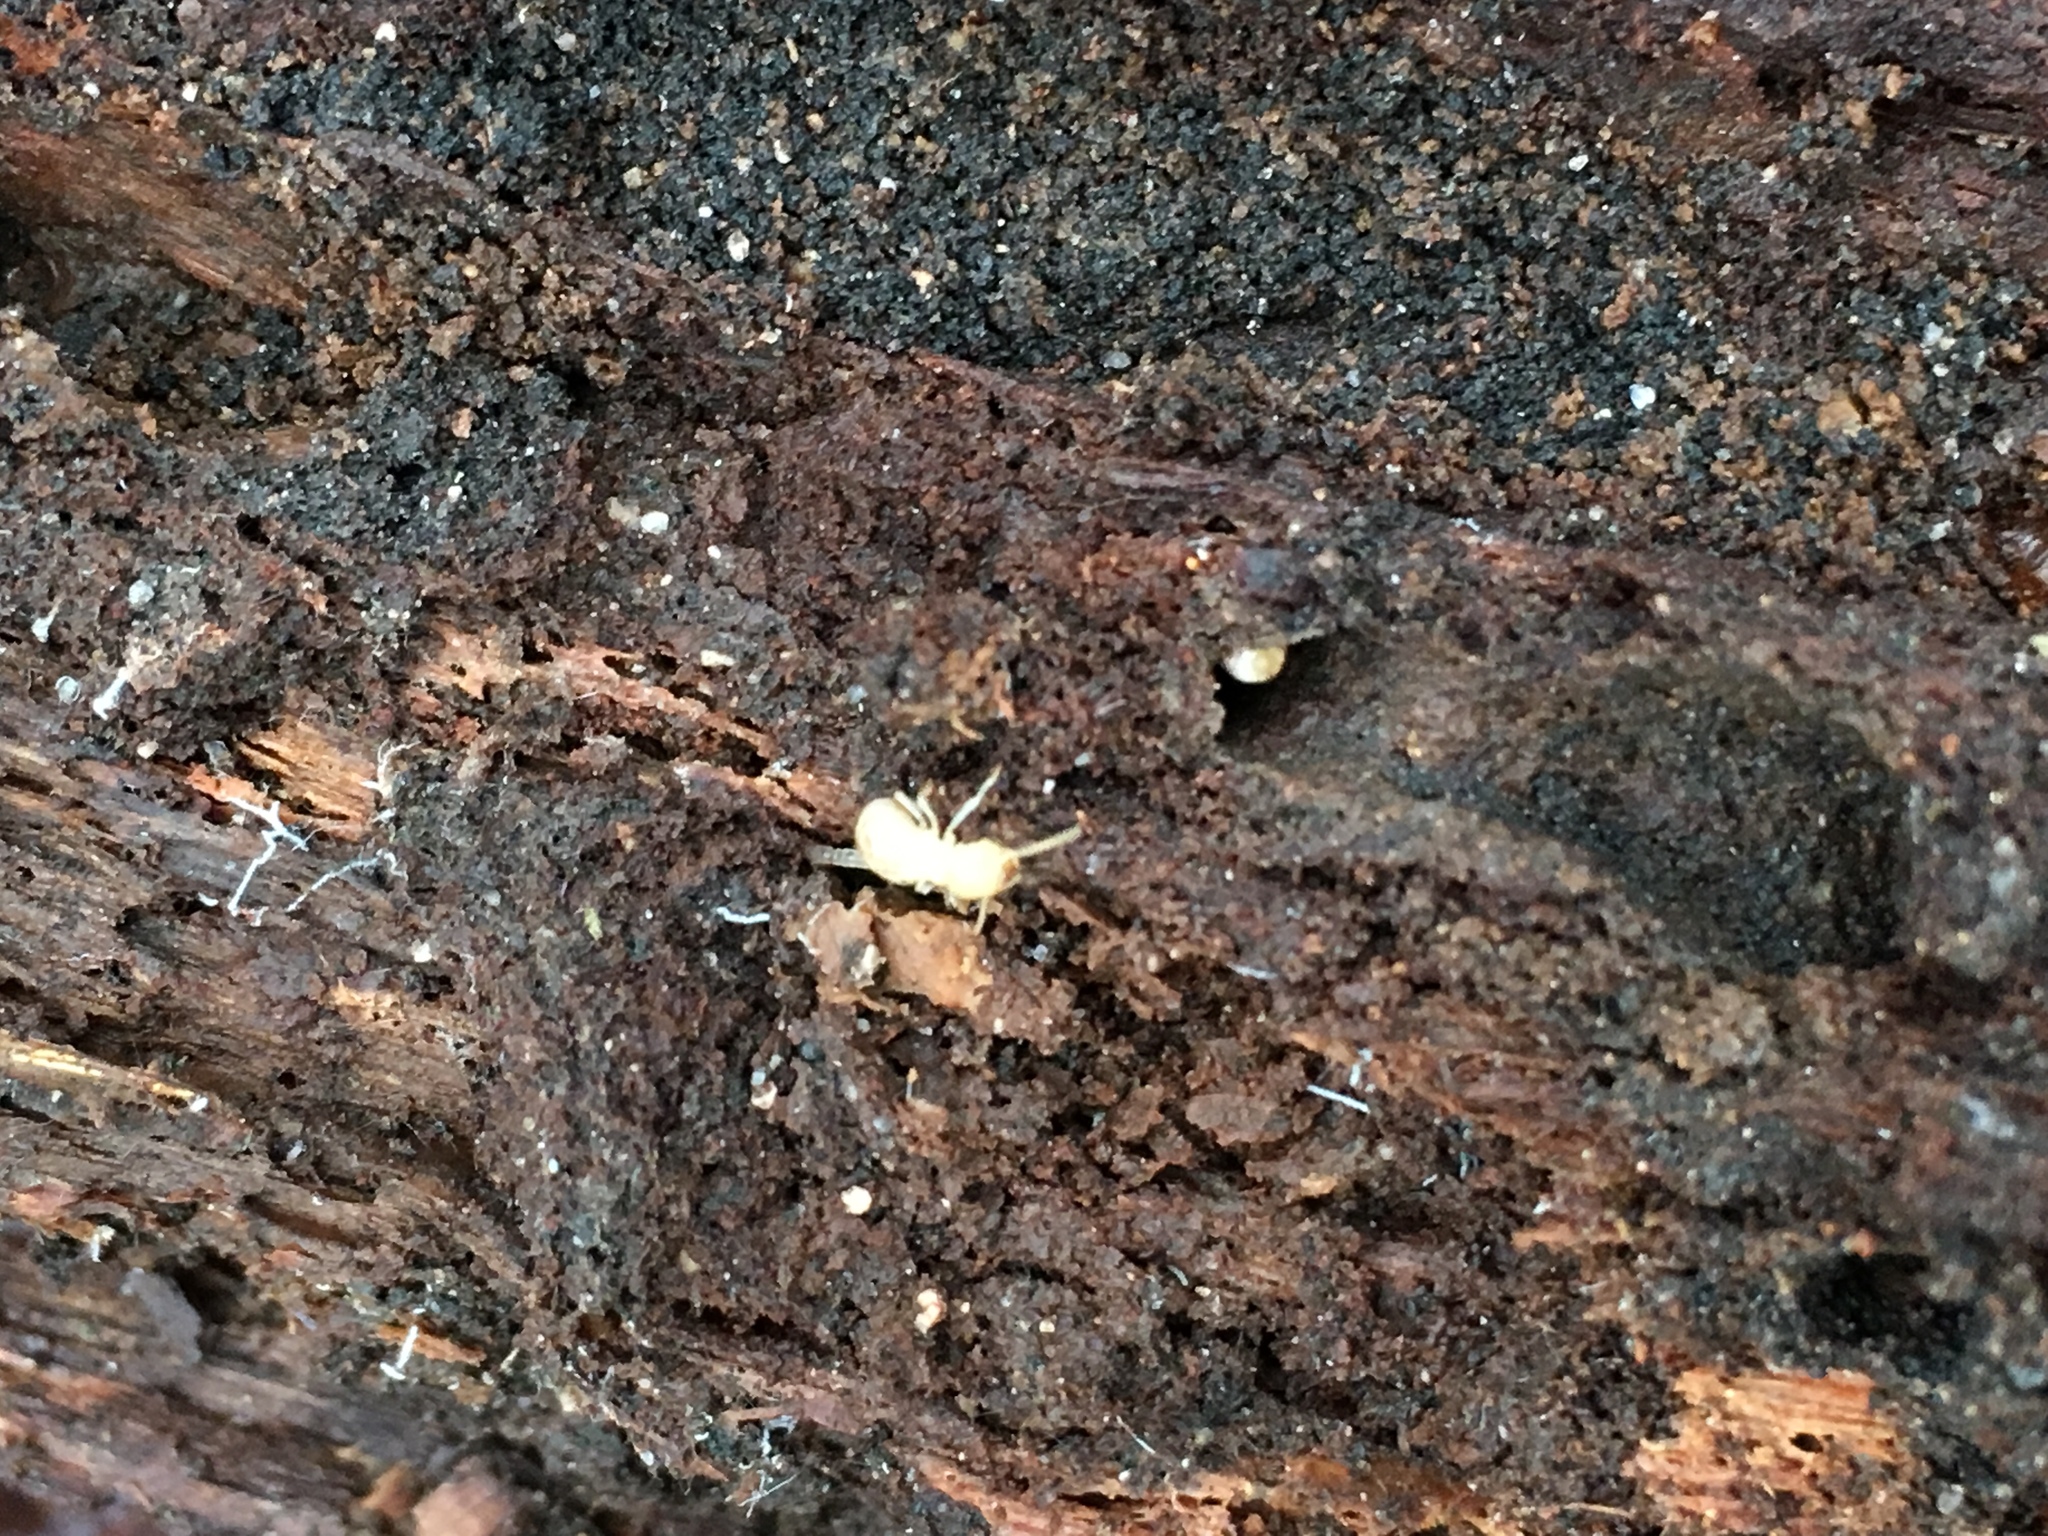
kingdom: Animalia
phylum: Arthropoda
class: Insecta
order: Blattodea
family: Rhinotermitidae
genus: Reticulitermes
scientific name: Reticulitermes flavipes
